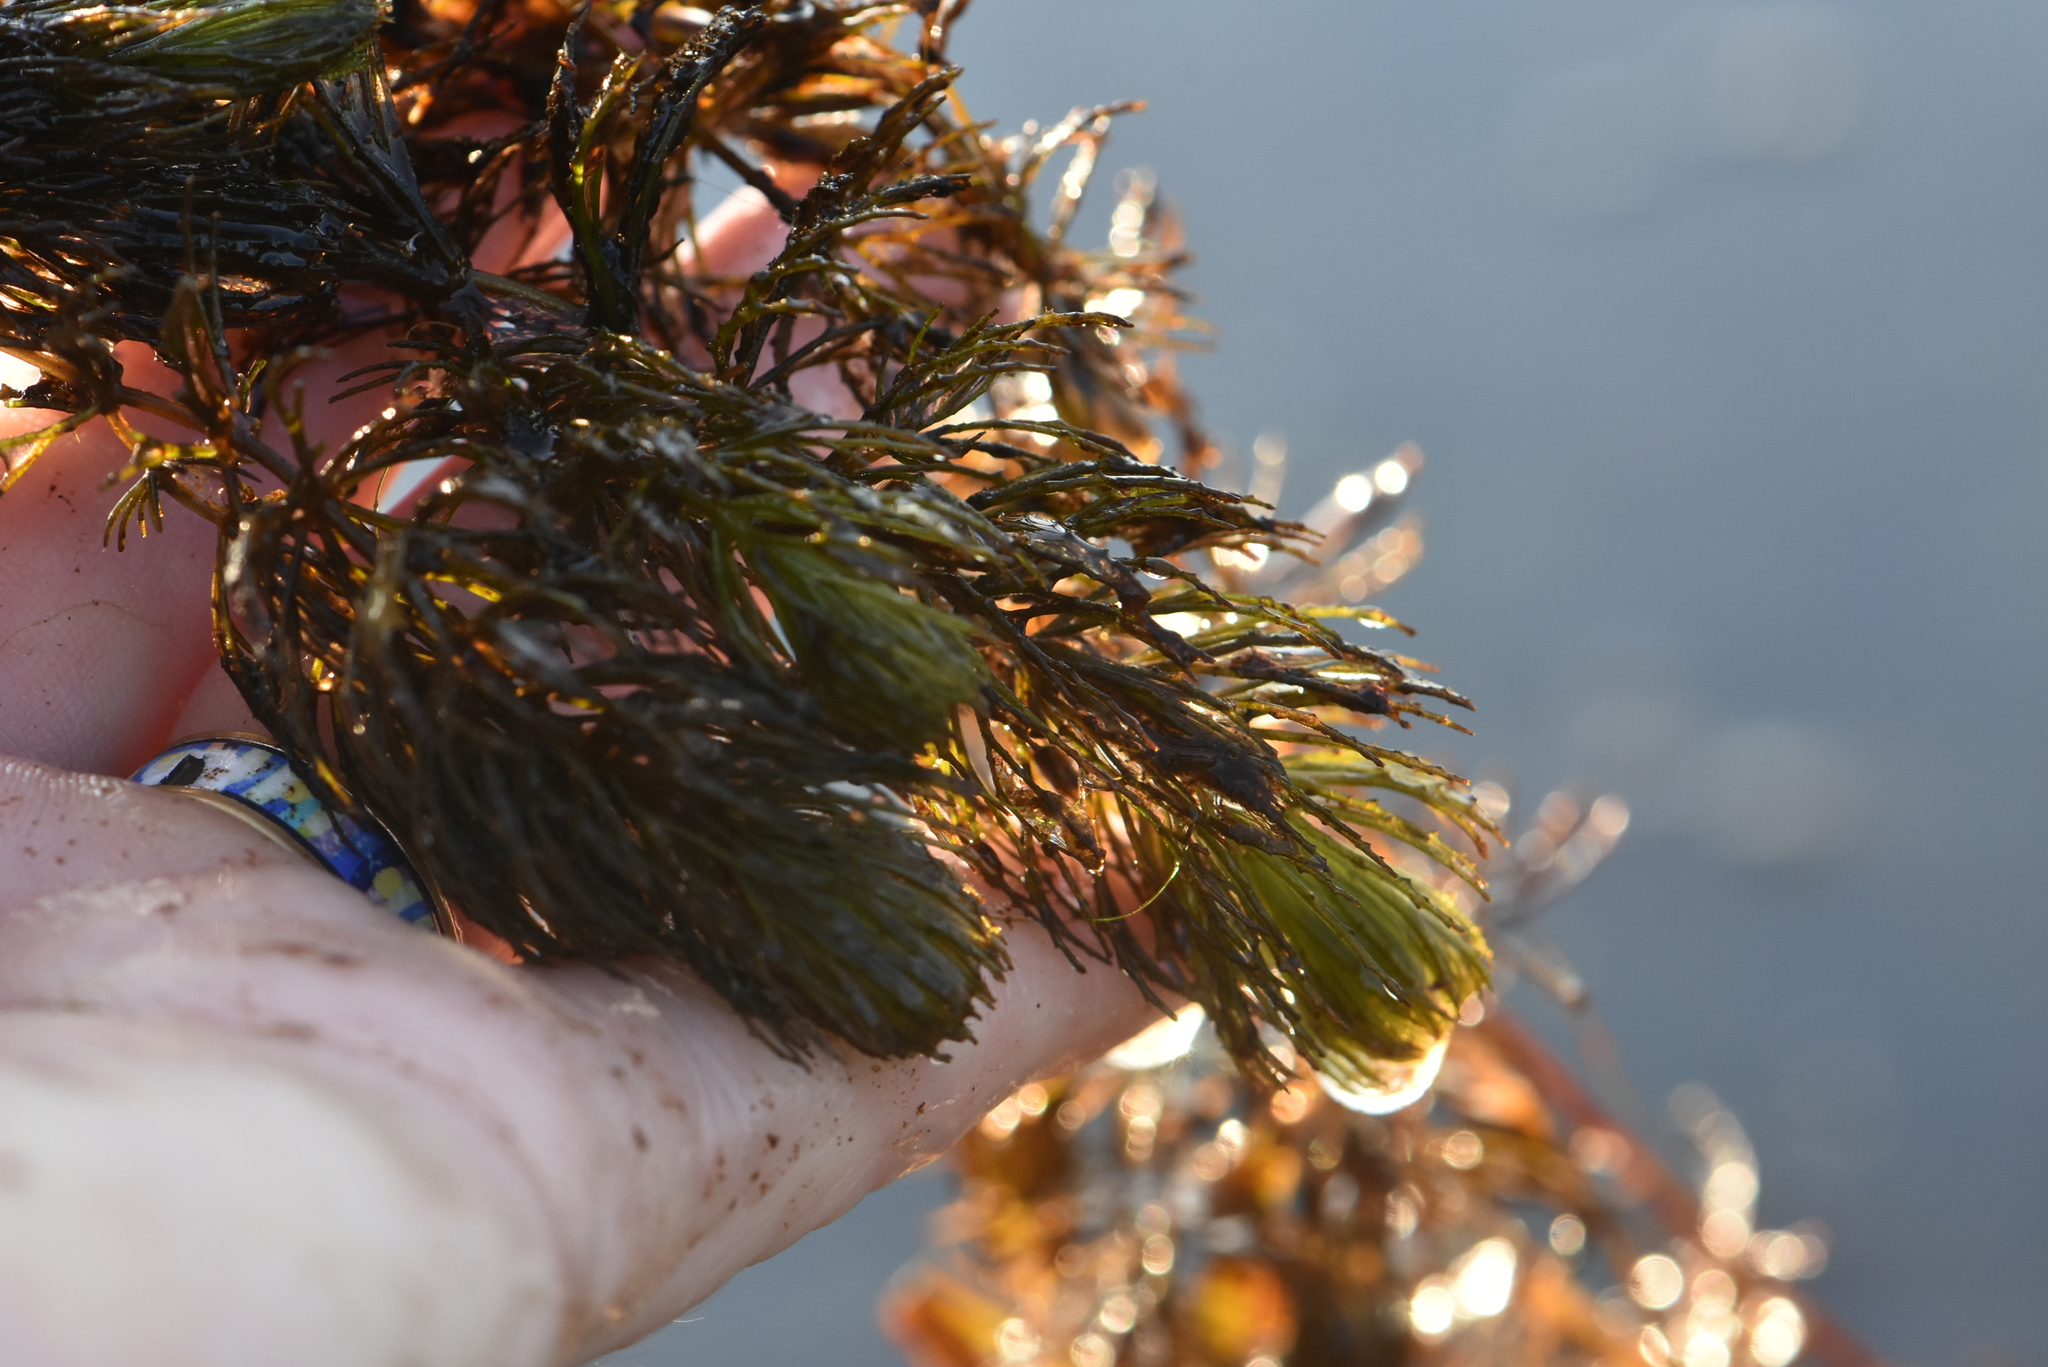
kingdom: Plantae
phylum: Tracheophyta
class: Magnoliopsida
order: Ceratophyllales
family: Ceratophyllaceae
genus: Ceratophyllum
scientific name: Ceratophyllum demersum
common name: Rigid hornwort
